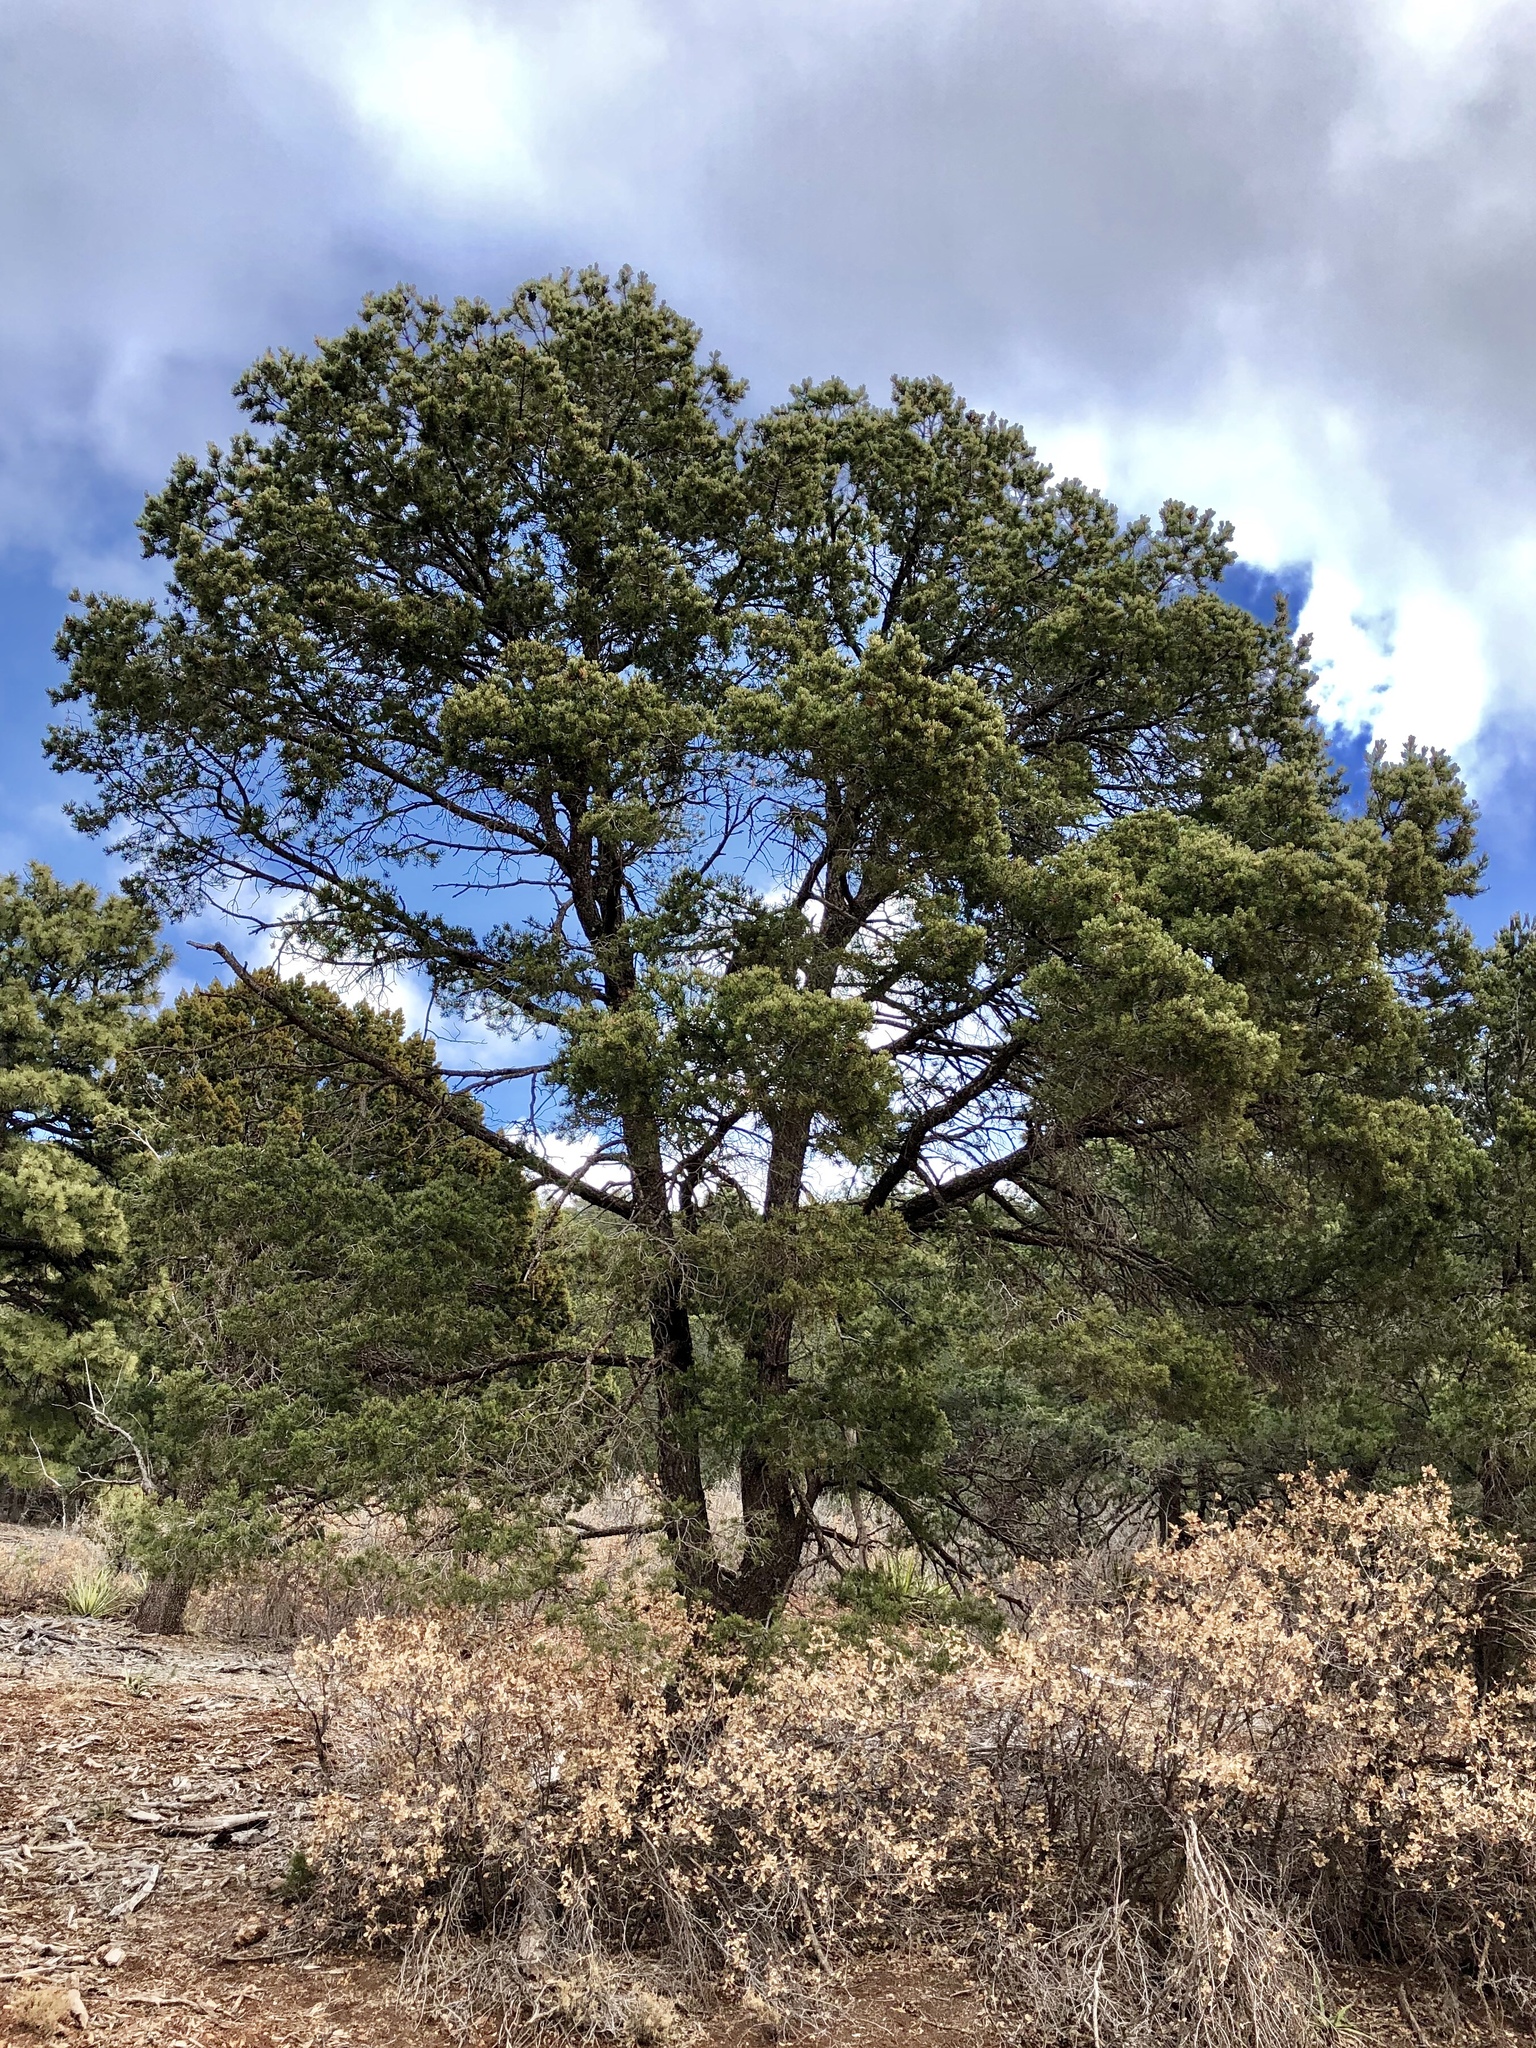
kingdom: Plantae
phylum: Tracheophyta
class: Pinopsida
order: Pinales
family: Pinaceae
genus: Pinus
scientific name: Pinus edulis
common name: Colorado pinyon
